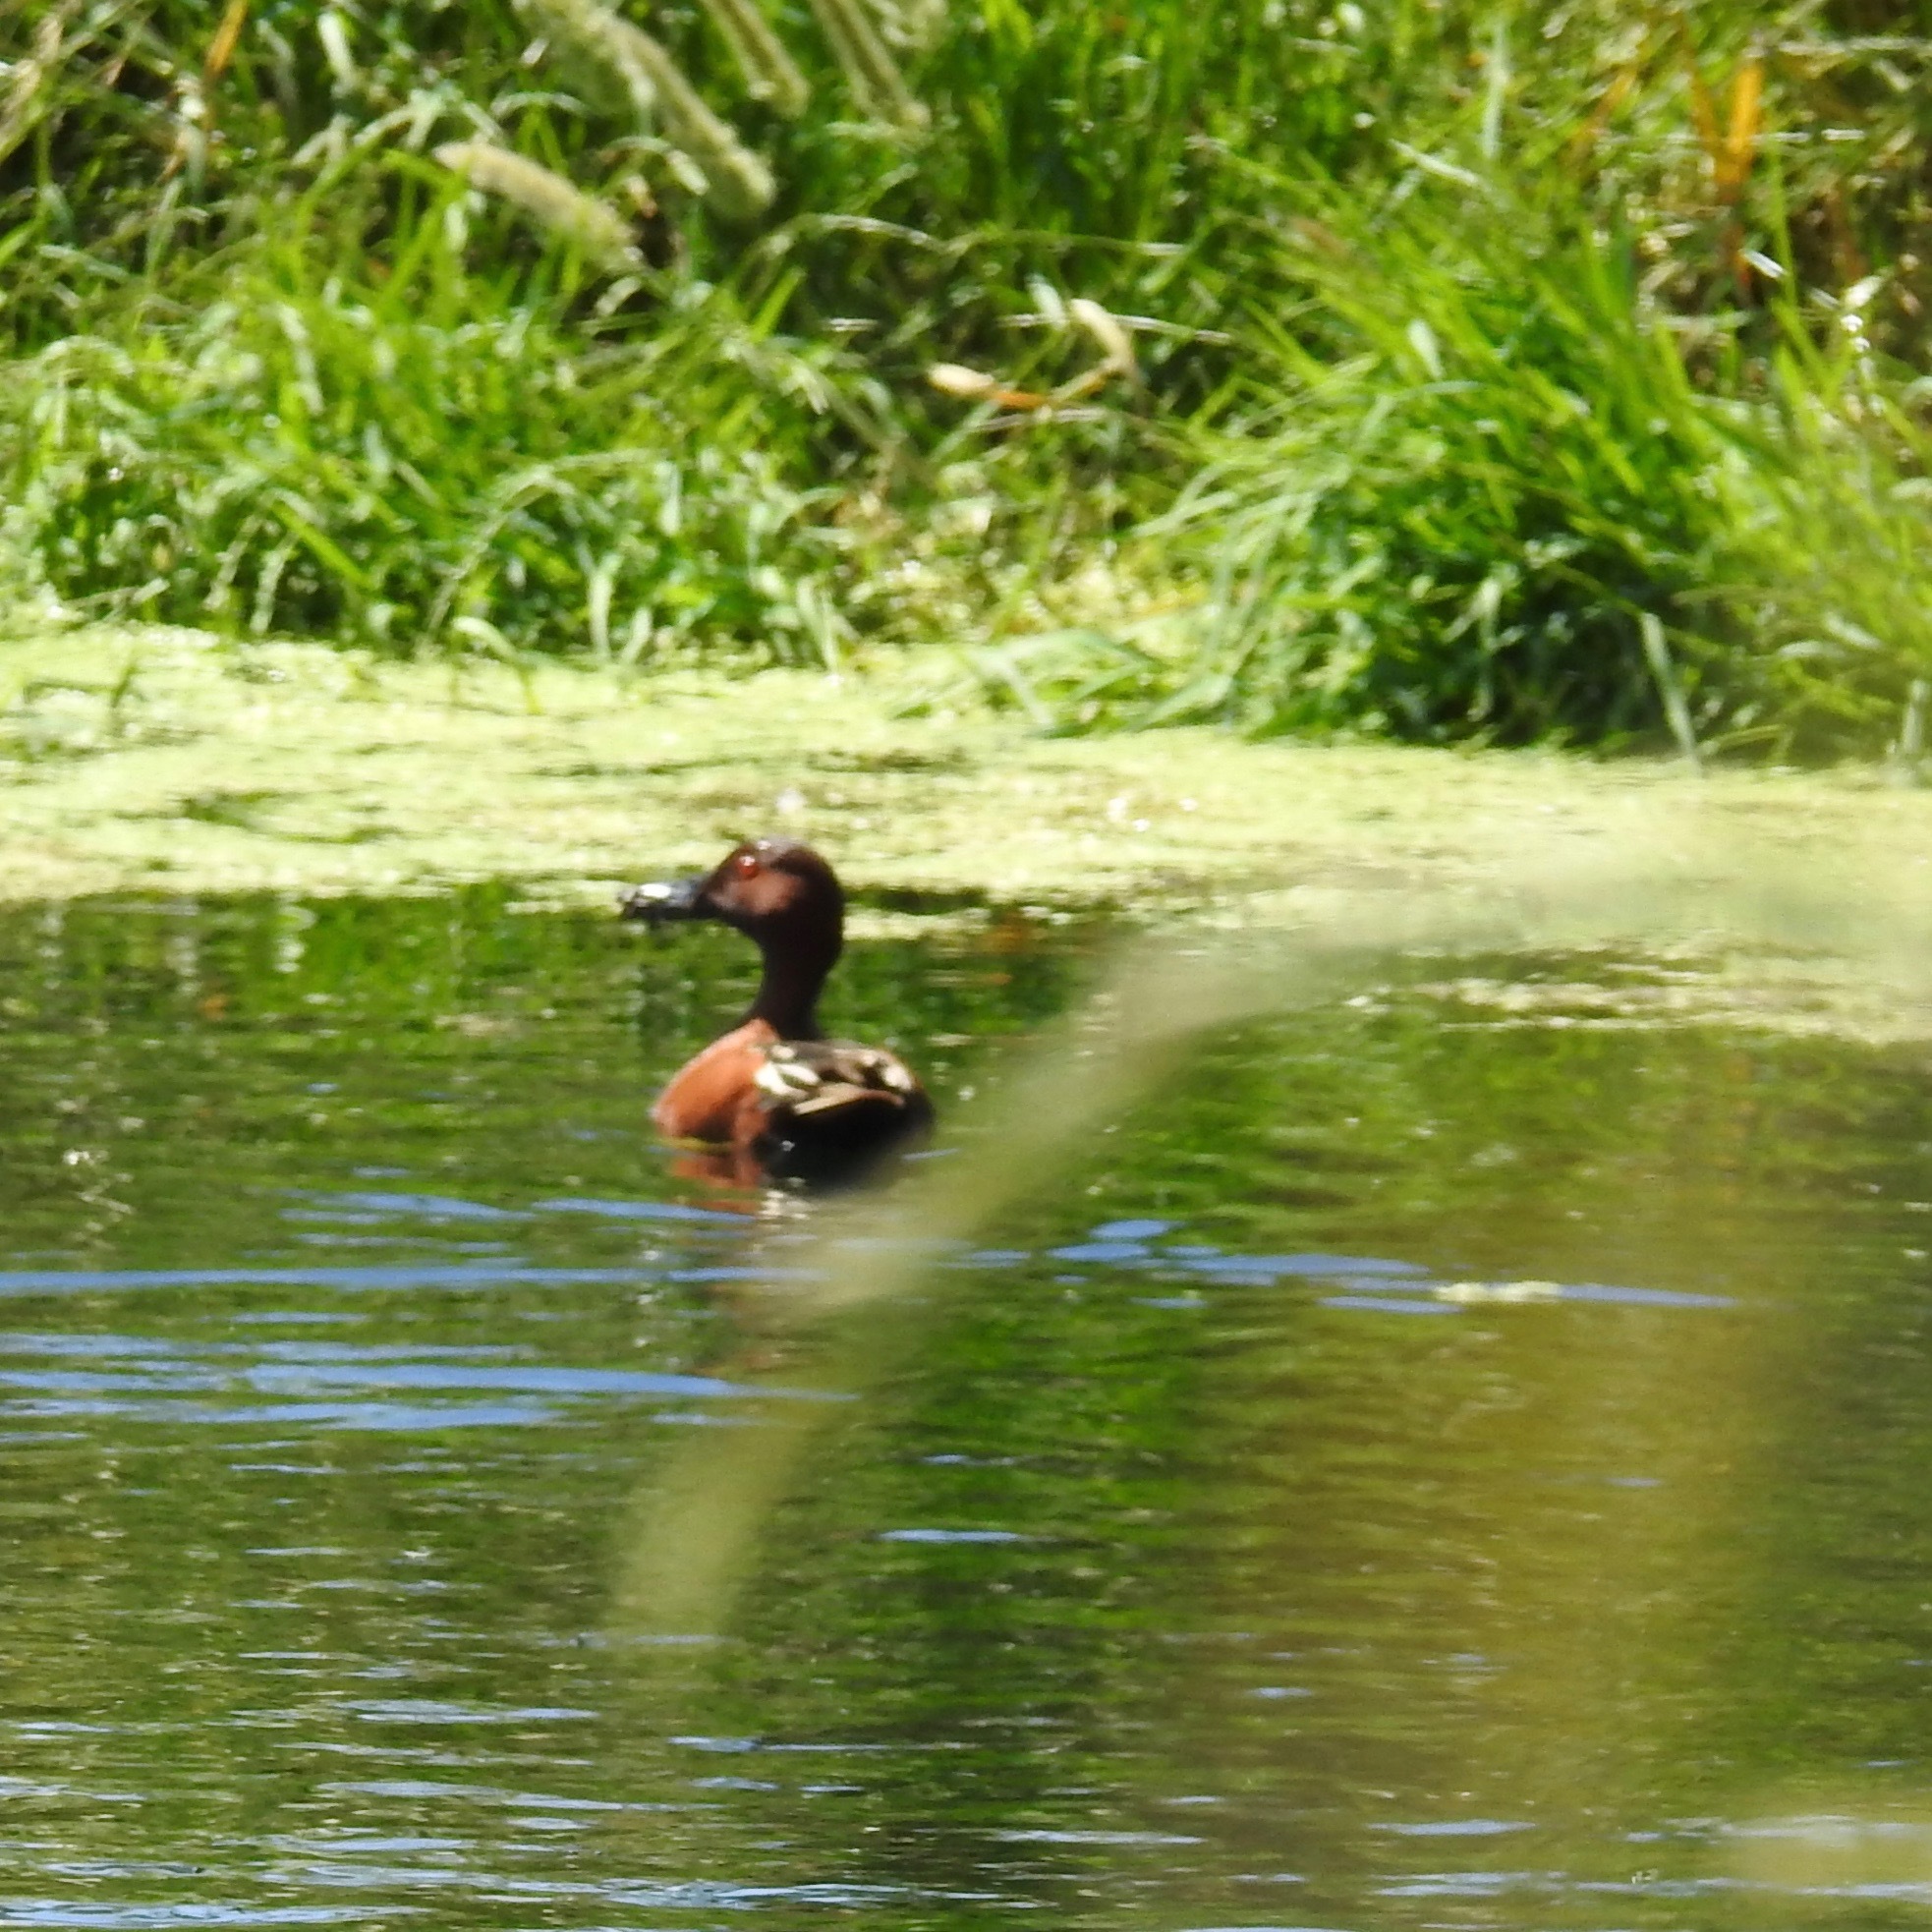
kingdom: Animalia
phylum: Chordata
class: Aves
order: Anseriformes
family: Anatidae
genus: Spatula
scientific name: Spatula cyanoptera
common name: Cinnamon teal
